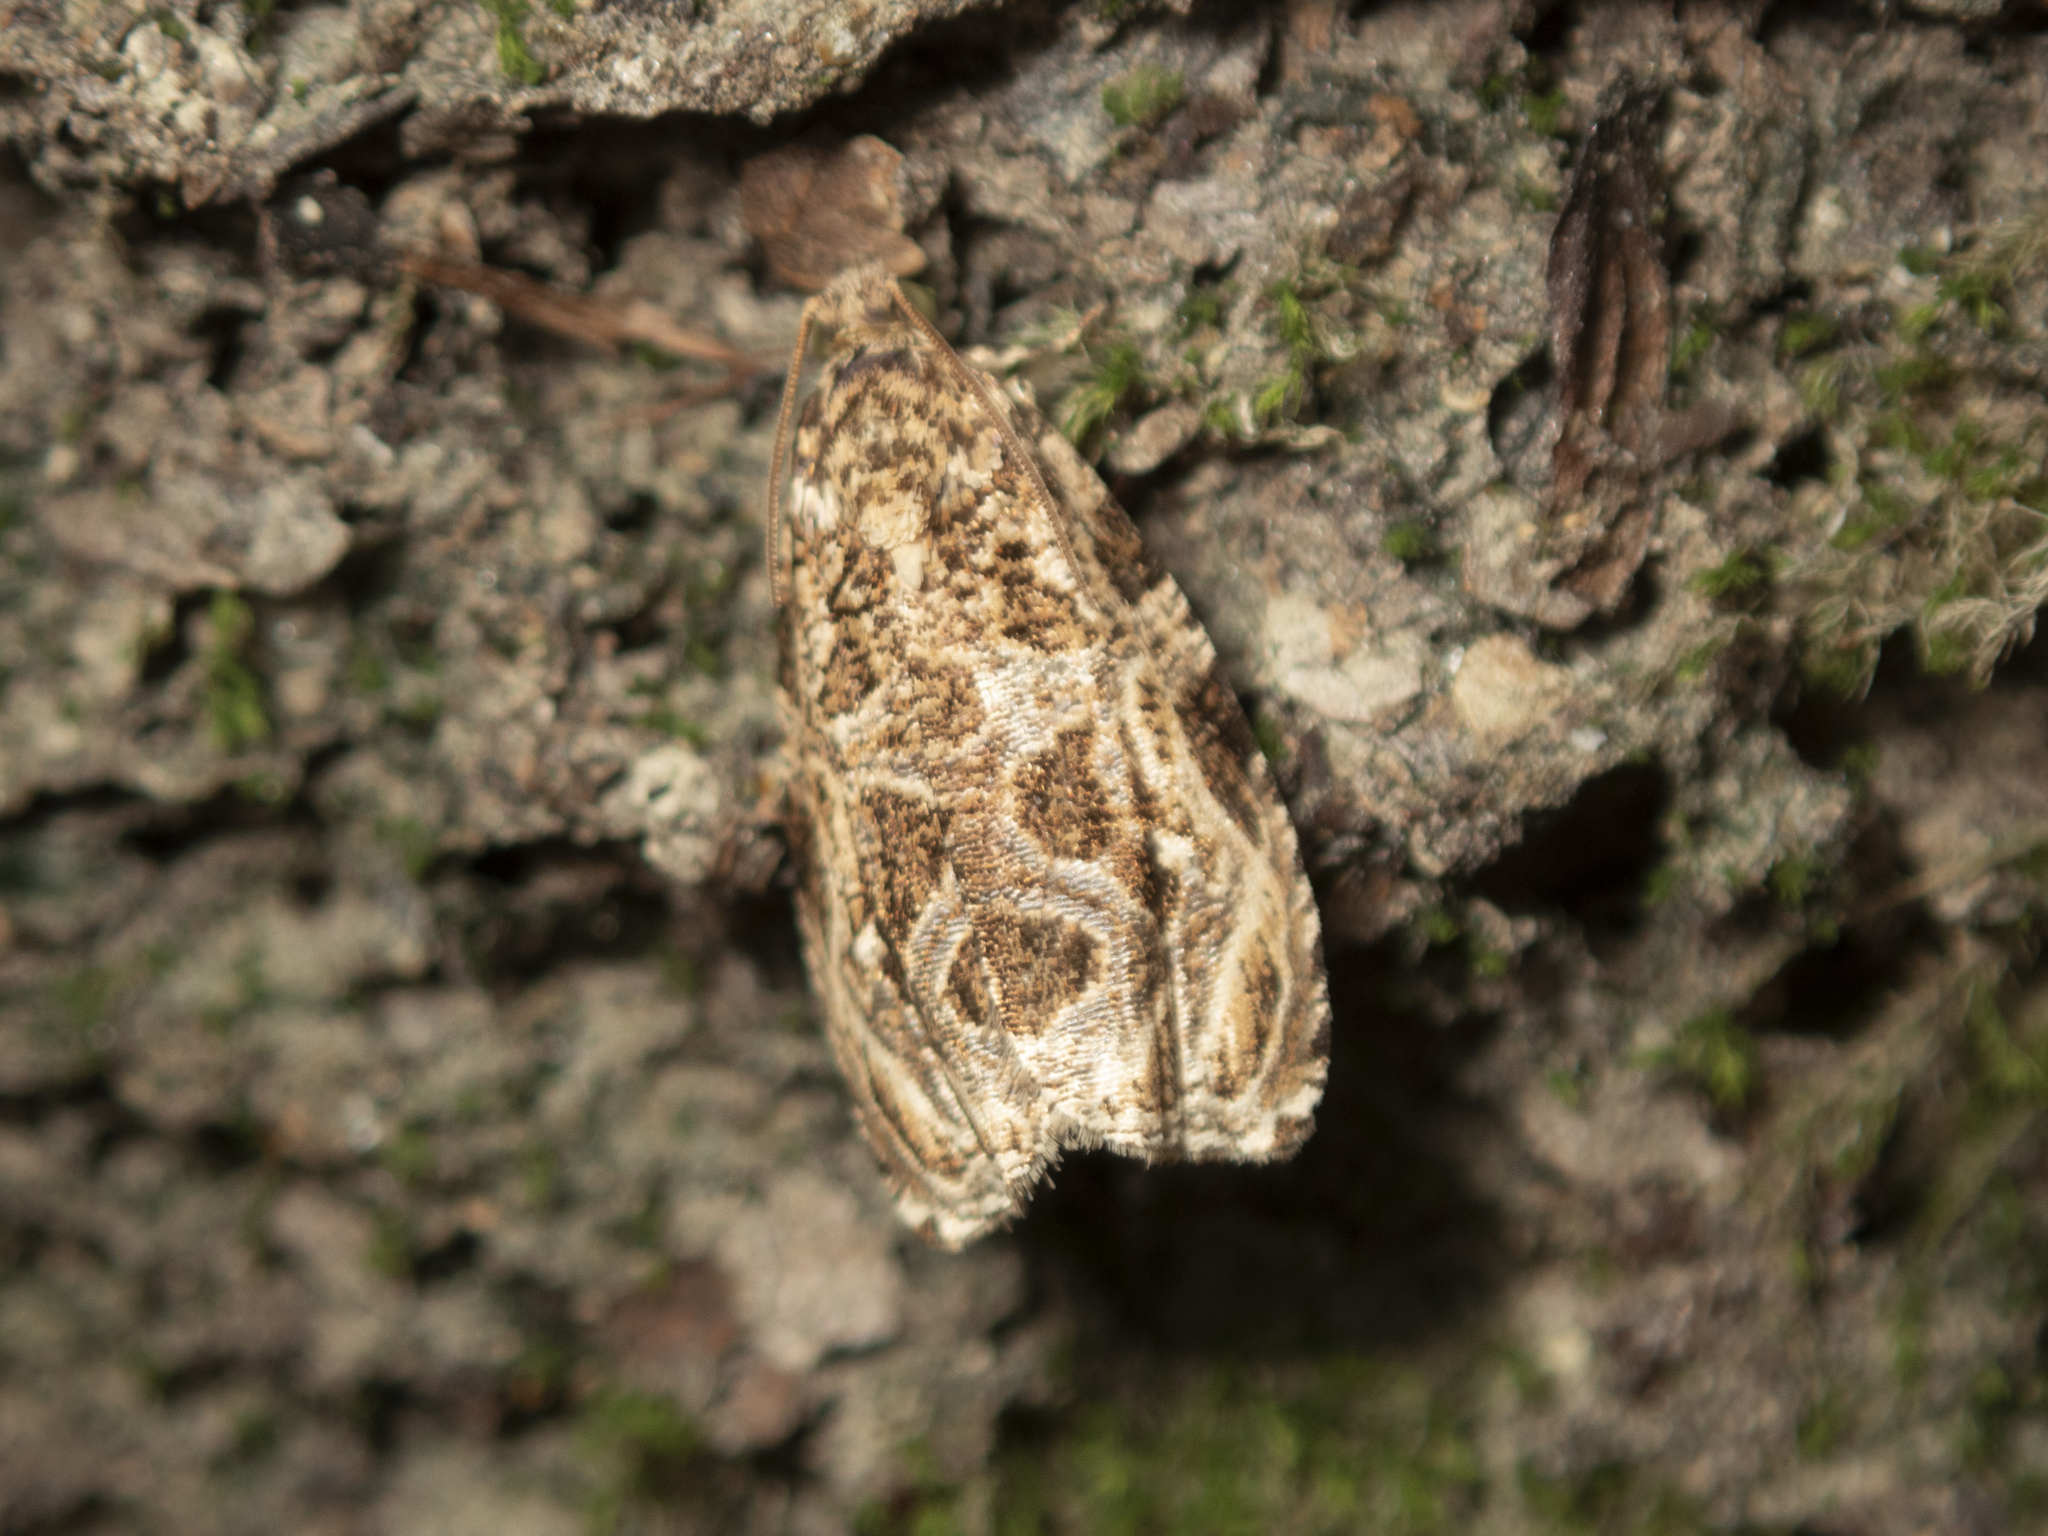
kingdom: Animalia
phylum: Arthropoda
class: Insecta
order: Lepidoptera
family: Tortricidae
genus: Phaecasiophora
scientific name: Phaecasiophora leechi
